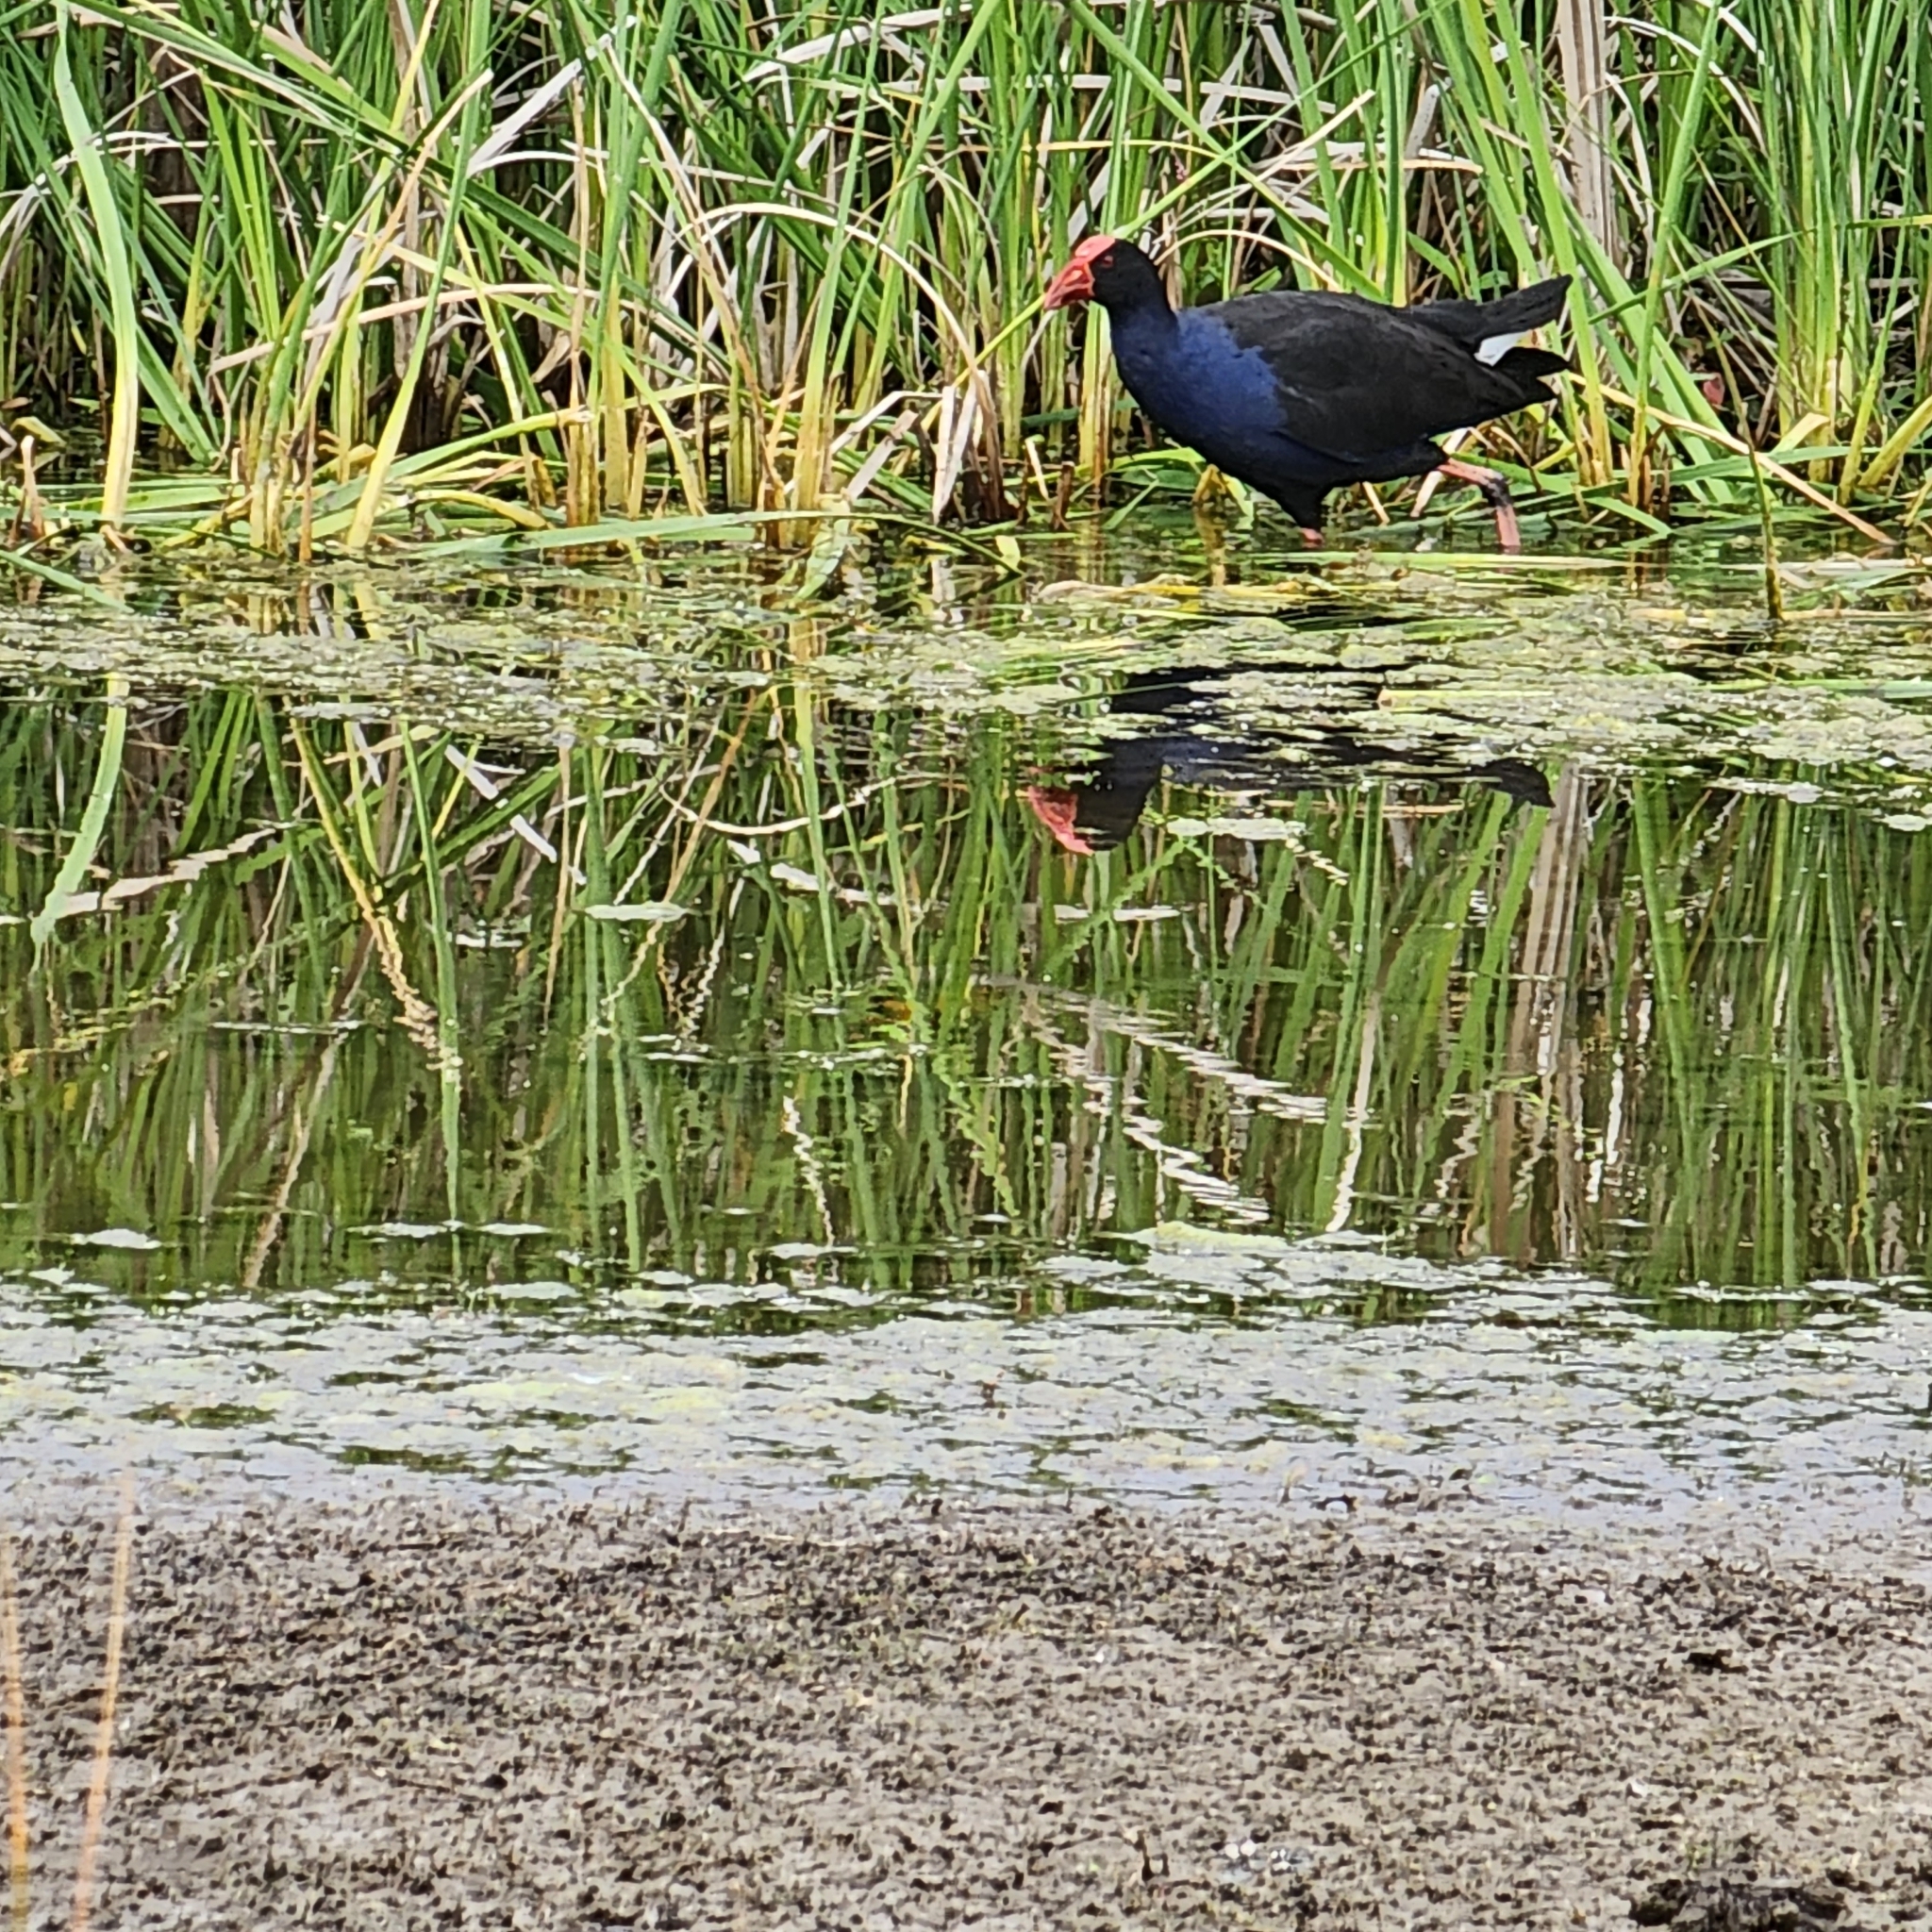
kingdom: Animalia
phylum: Chordata
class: Aves
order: Gruiformes
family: Rallidae
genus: Porphyrio
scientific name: Porphyrio melanotus
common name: Australasian swamphen
